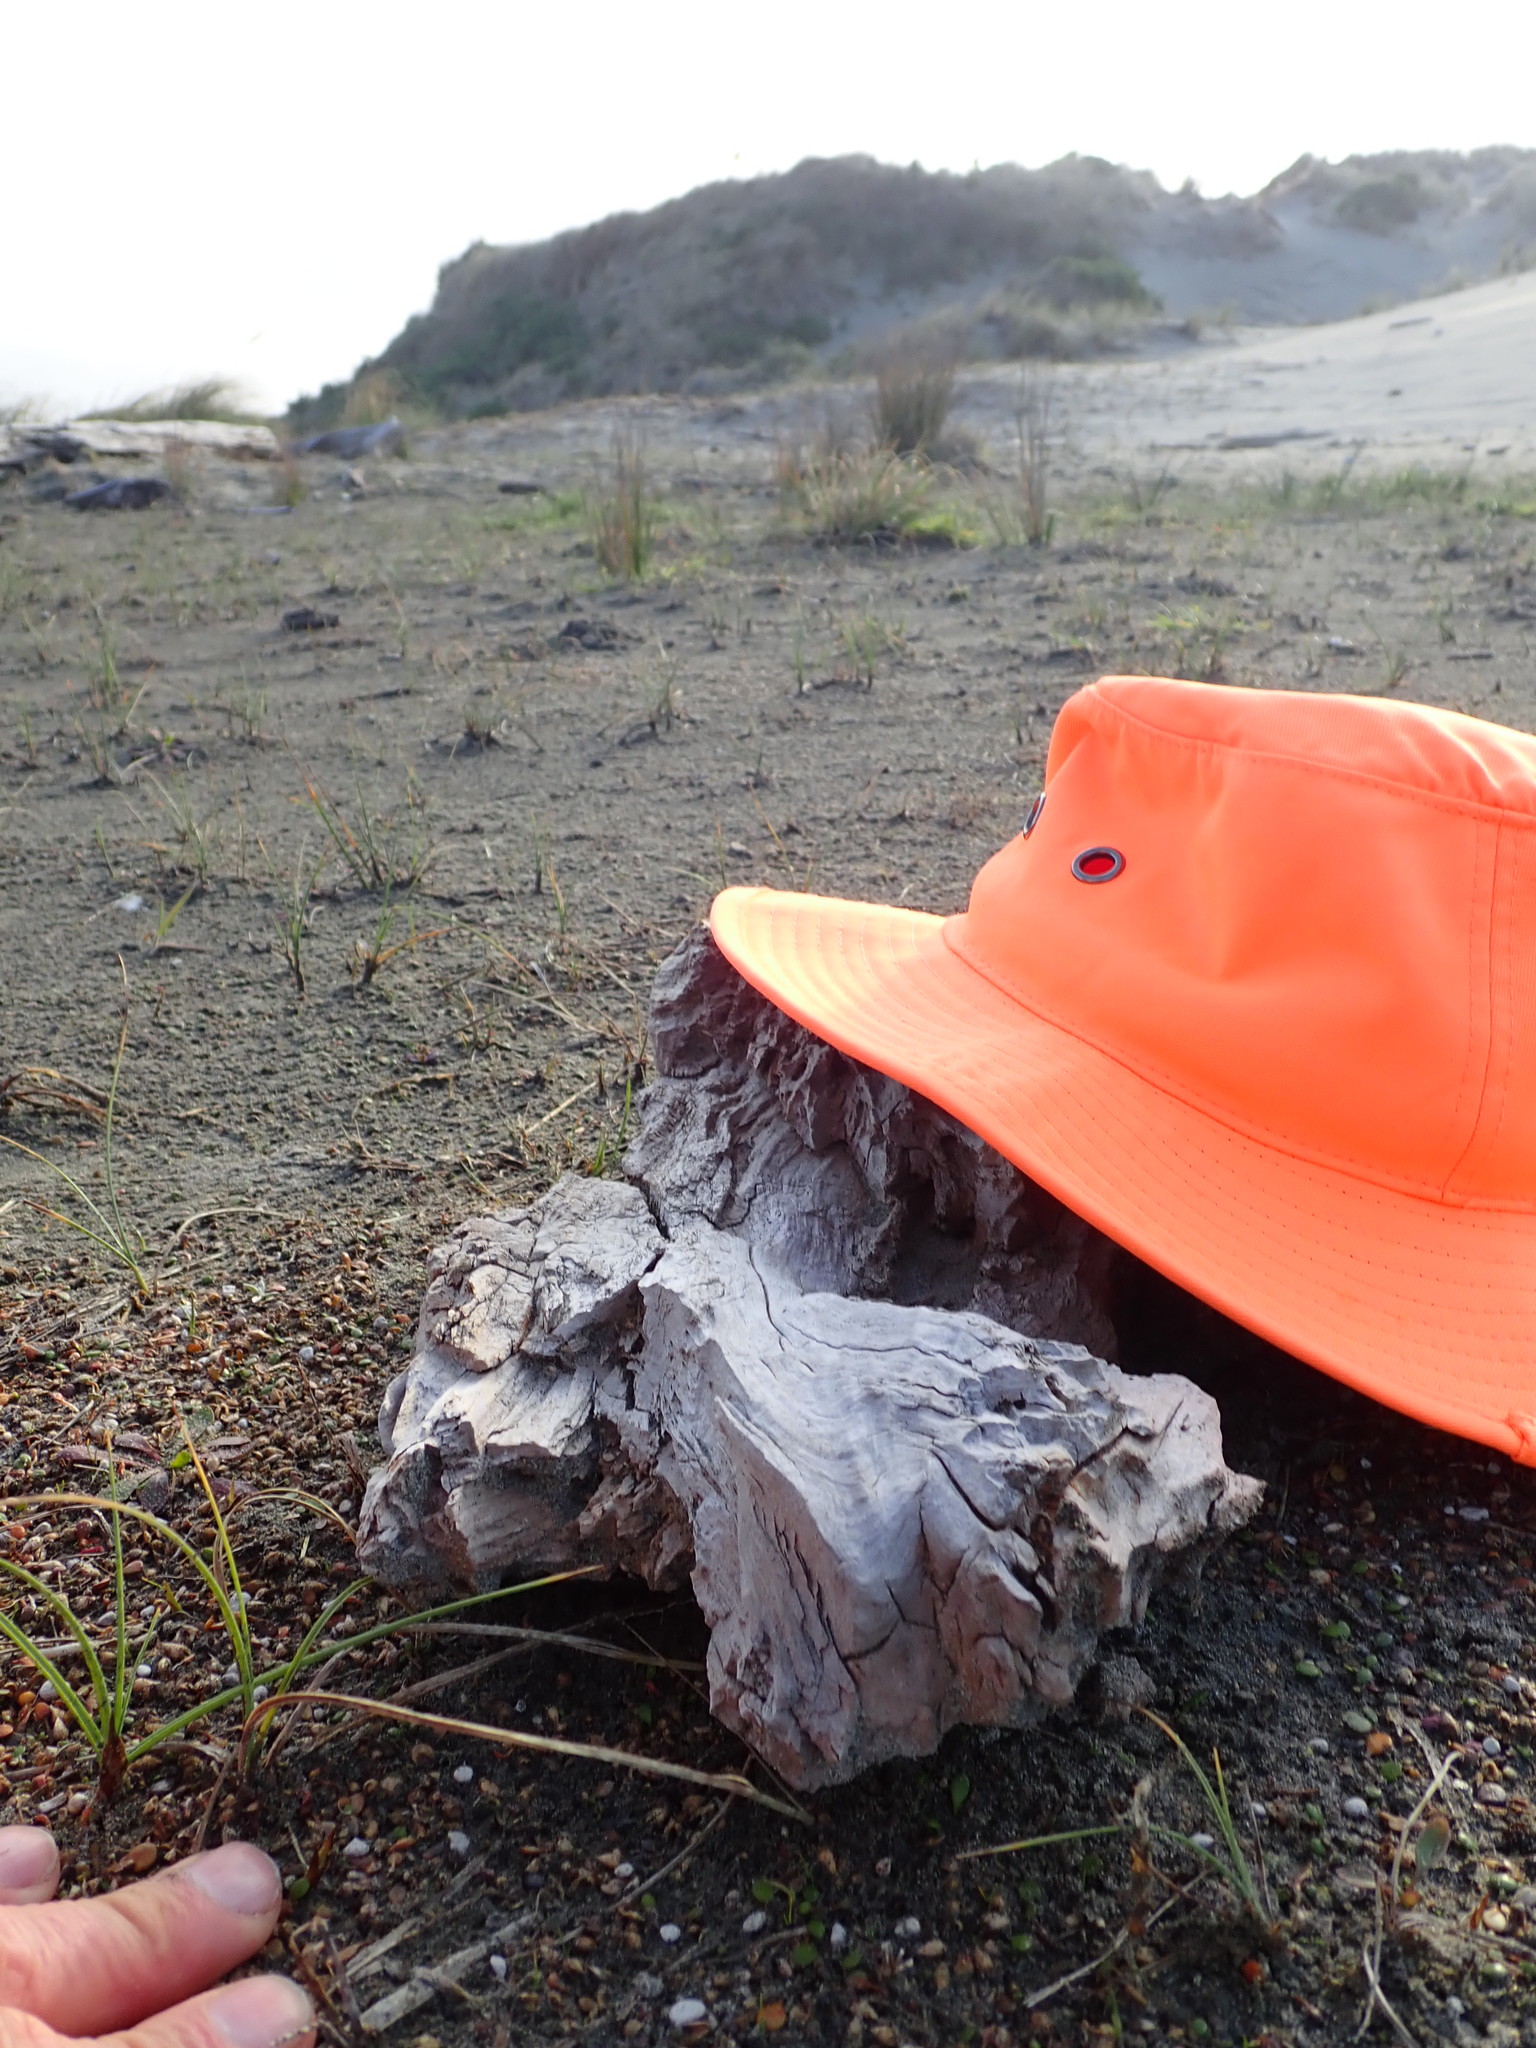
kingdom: Animalia
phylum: Arthropoda
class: Insecta
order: Coleoptera
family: Carabidae
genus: Haplanister
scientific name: Haplanister crypticus
